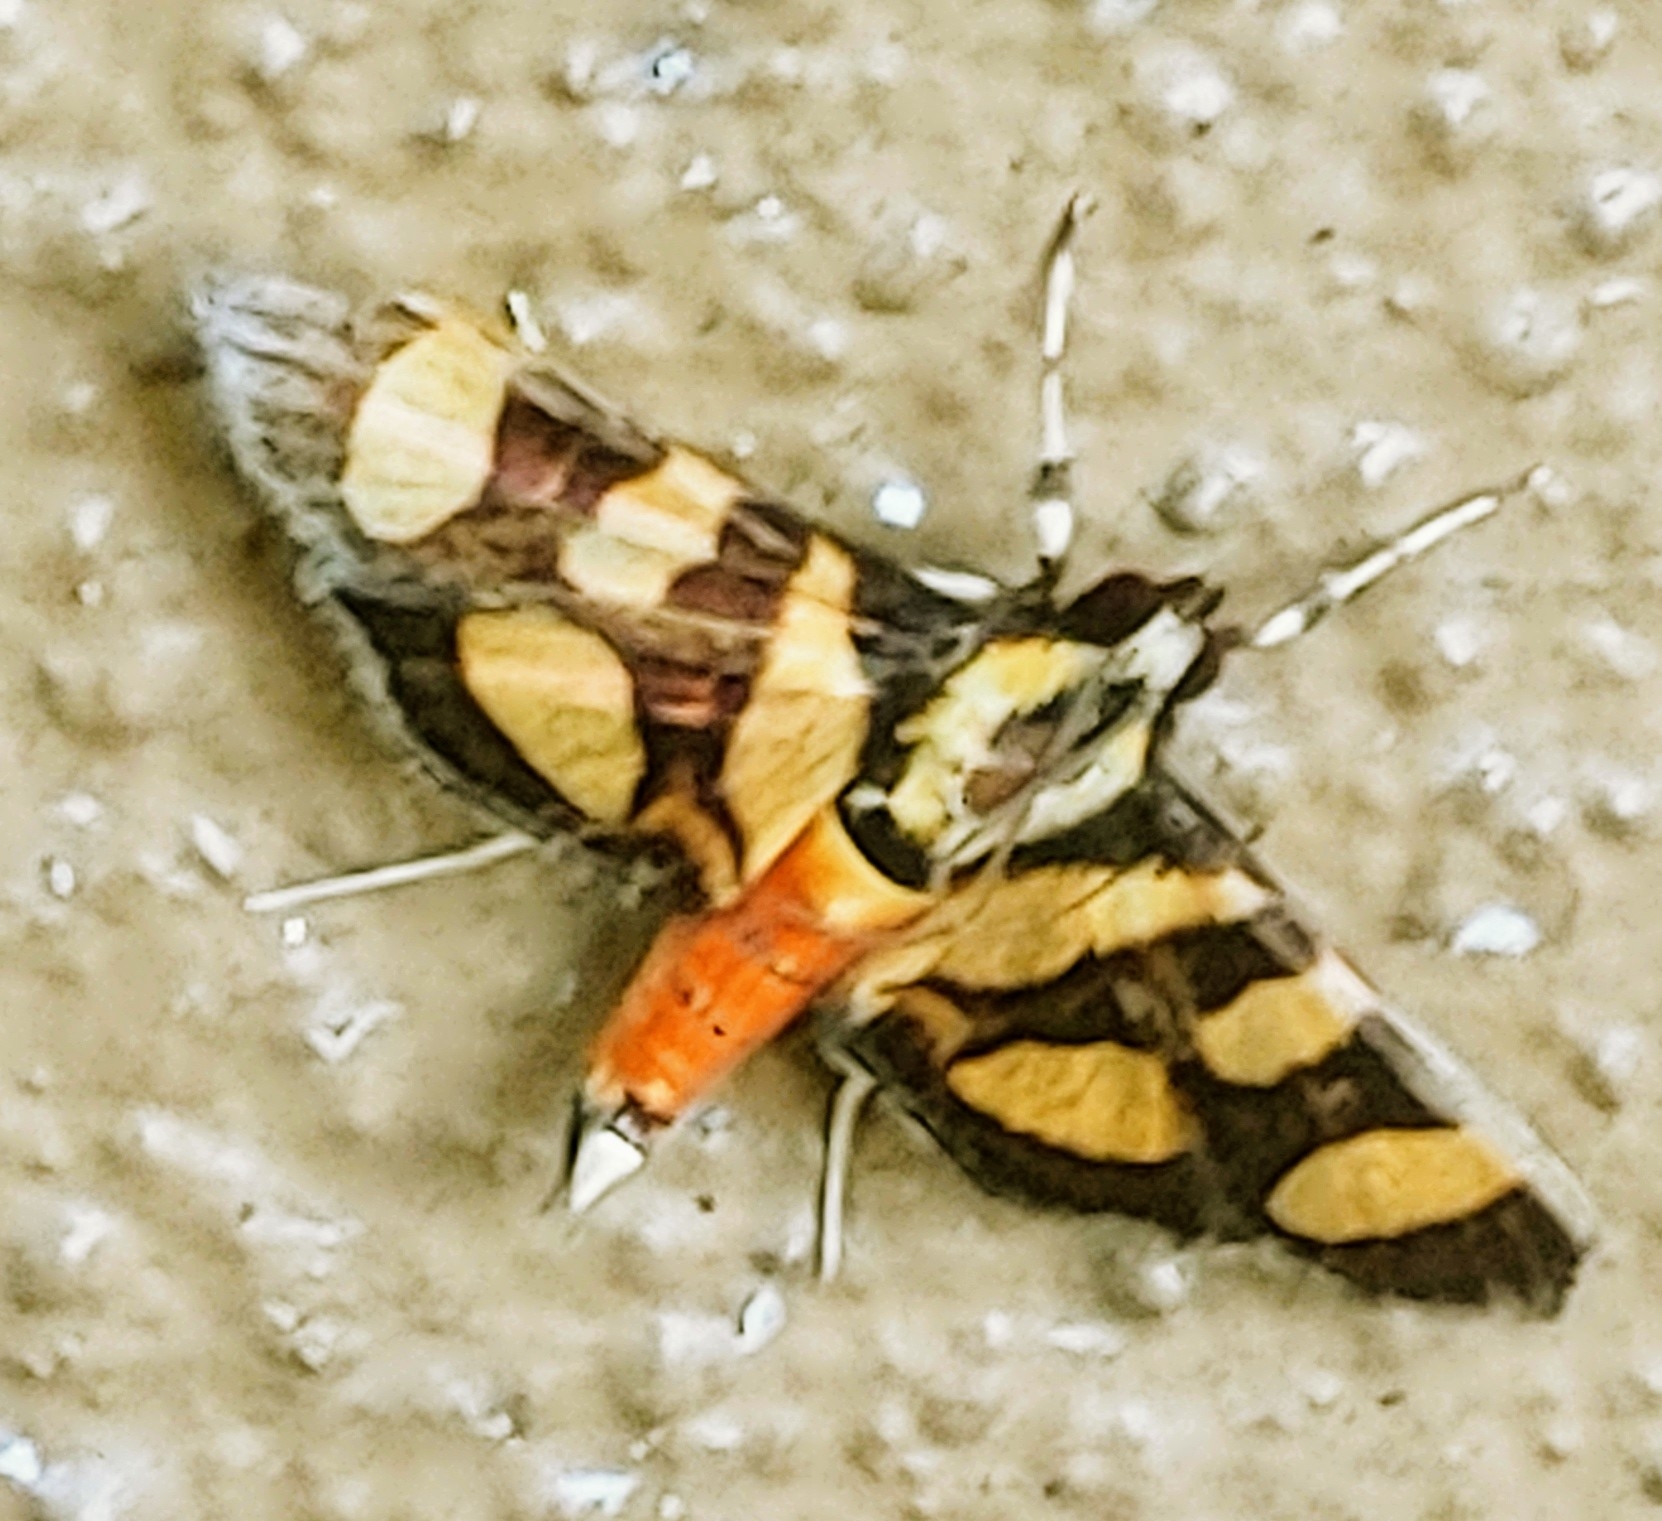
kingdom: Animalia
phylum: Arthropoda
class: Insecta
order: Lepidoptera
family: Crambidae
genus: Syngamia
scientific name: Syngamia florella
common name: Orange-spotted flower moth
